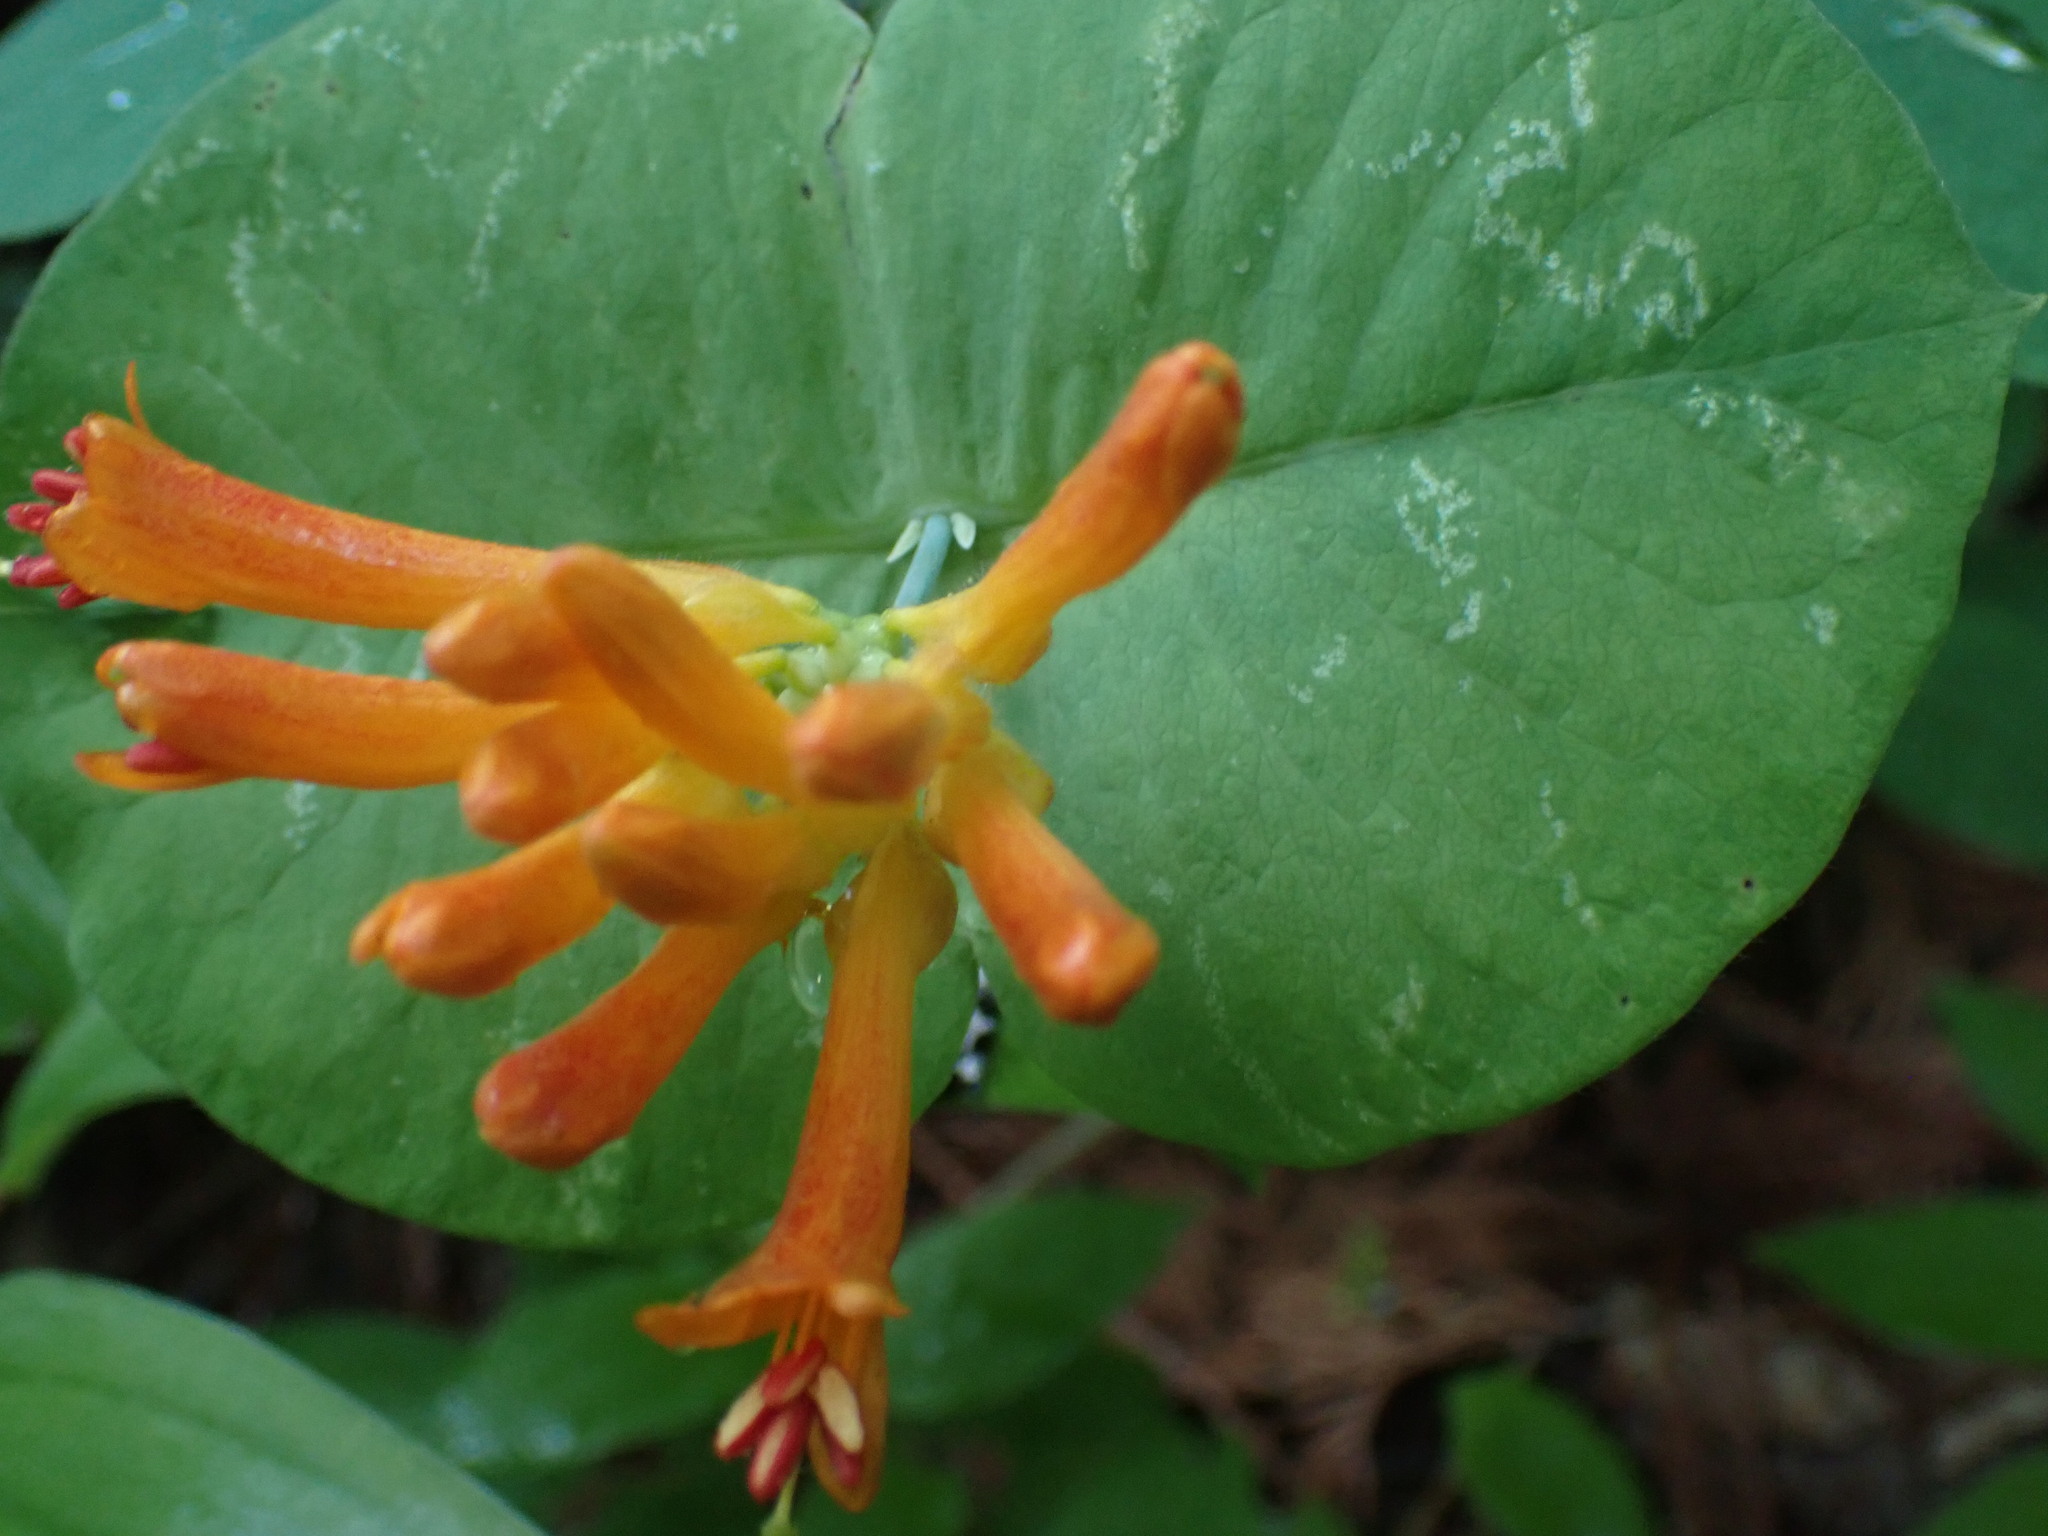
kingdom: Plantae
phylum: Tracheophyta
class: Magnoliopsida
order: Dipsacales
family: Caprifoliaceae
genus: Lonicera
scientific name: Lonicera ciliosa
